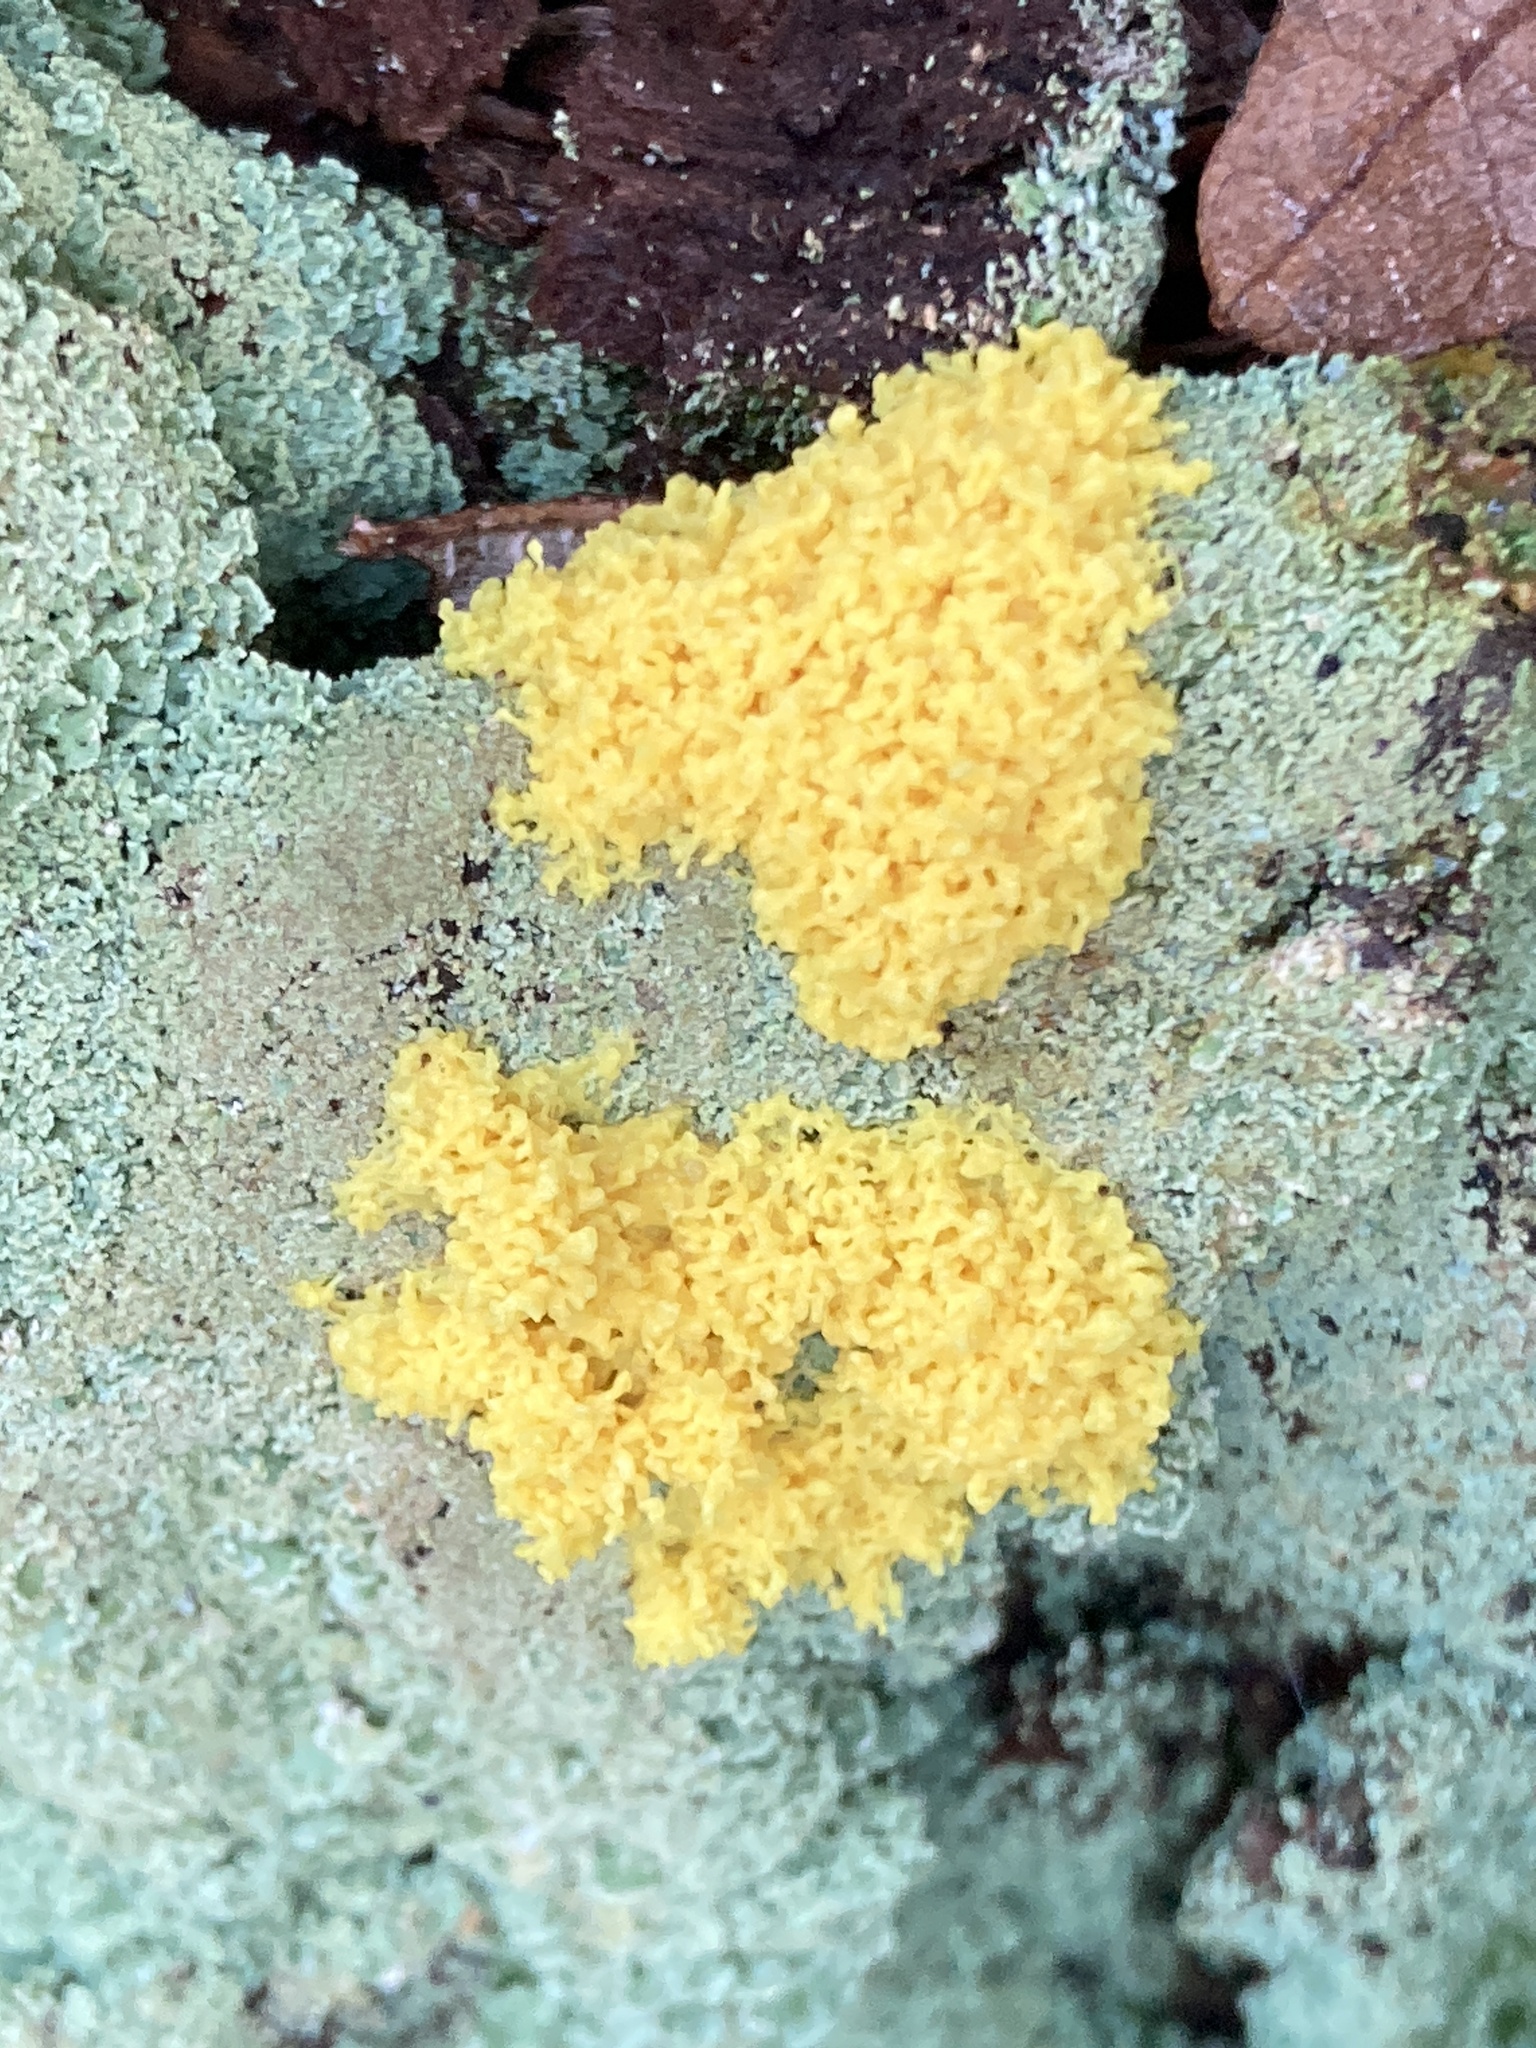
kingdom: Protozoa
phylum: Mycetozoa
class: Myxomycetes
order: Physarales
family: Physaraceae
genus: Fuligo
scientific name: Fuligo septica
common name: Dog vomit slime mold
